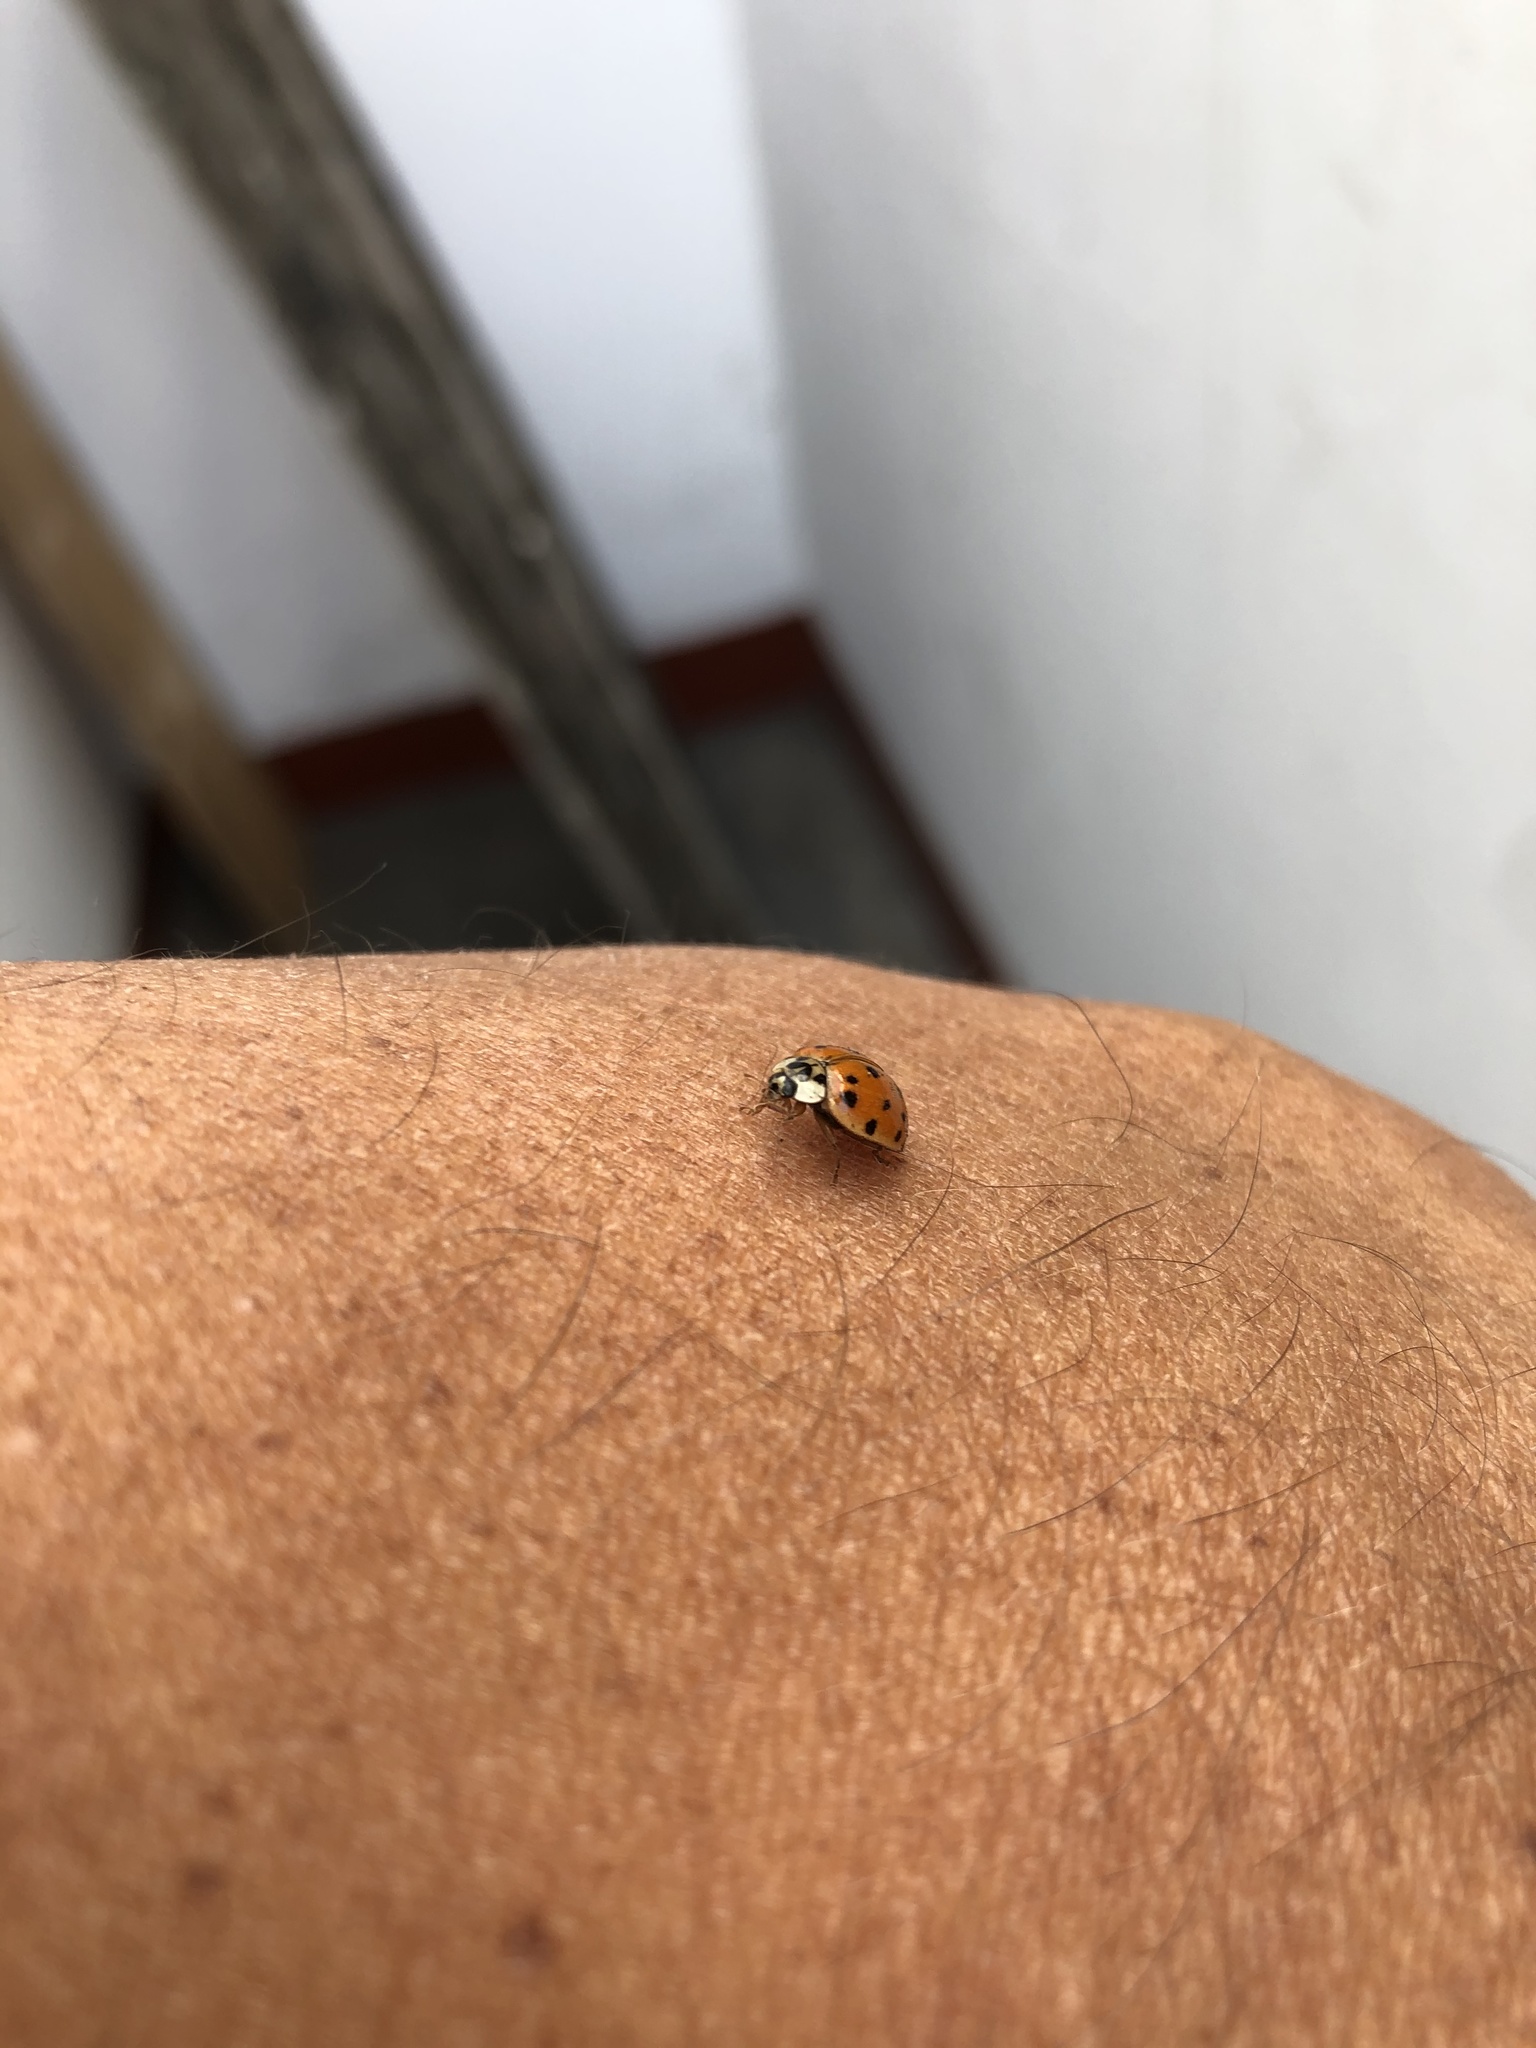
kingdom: Animalia
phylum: Arthropoda
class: Insecta
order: Coleoptera
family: Coccinellidae
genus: Harmonia
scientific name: Harmonia axyridis
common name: Harlequin ladybird
